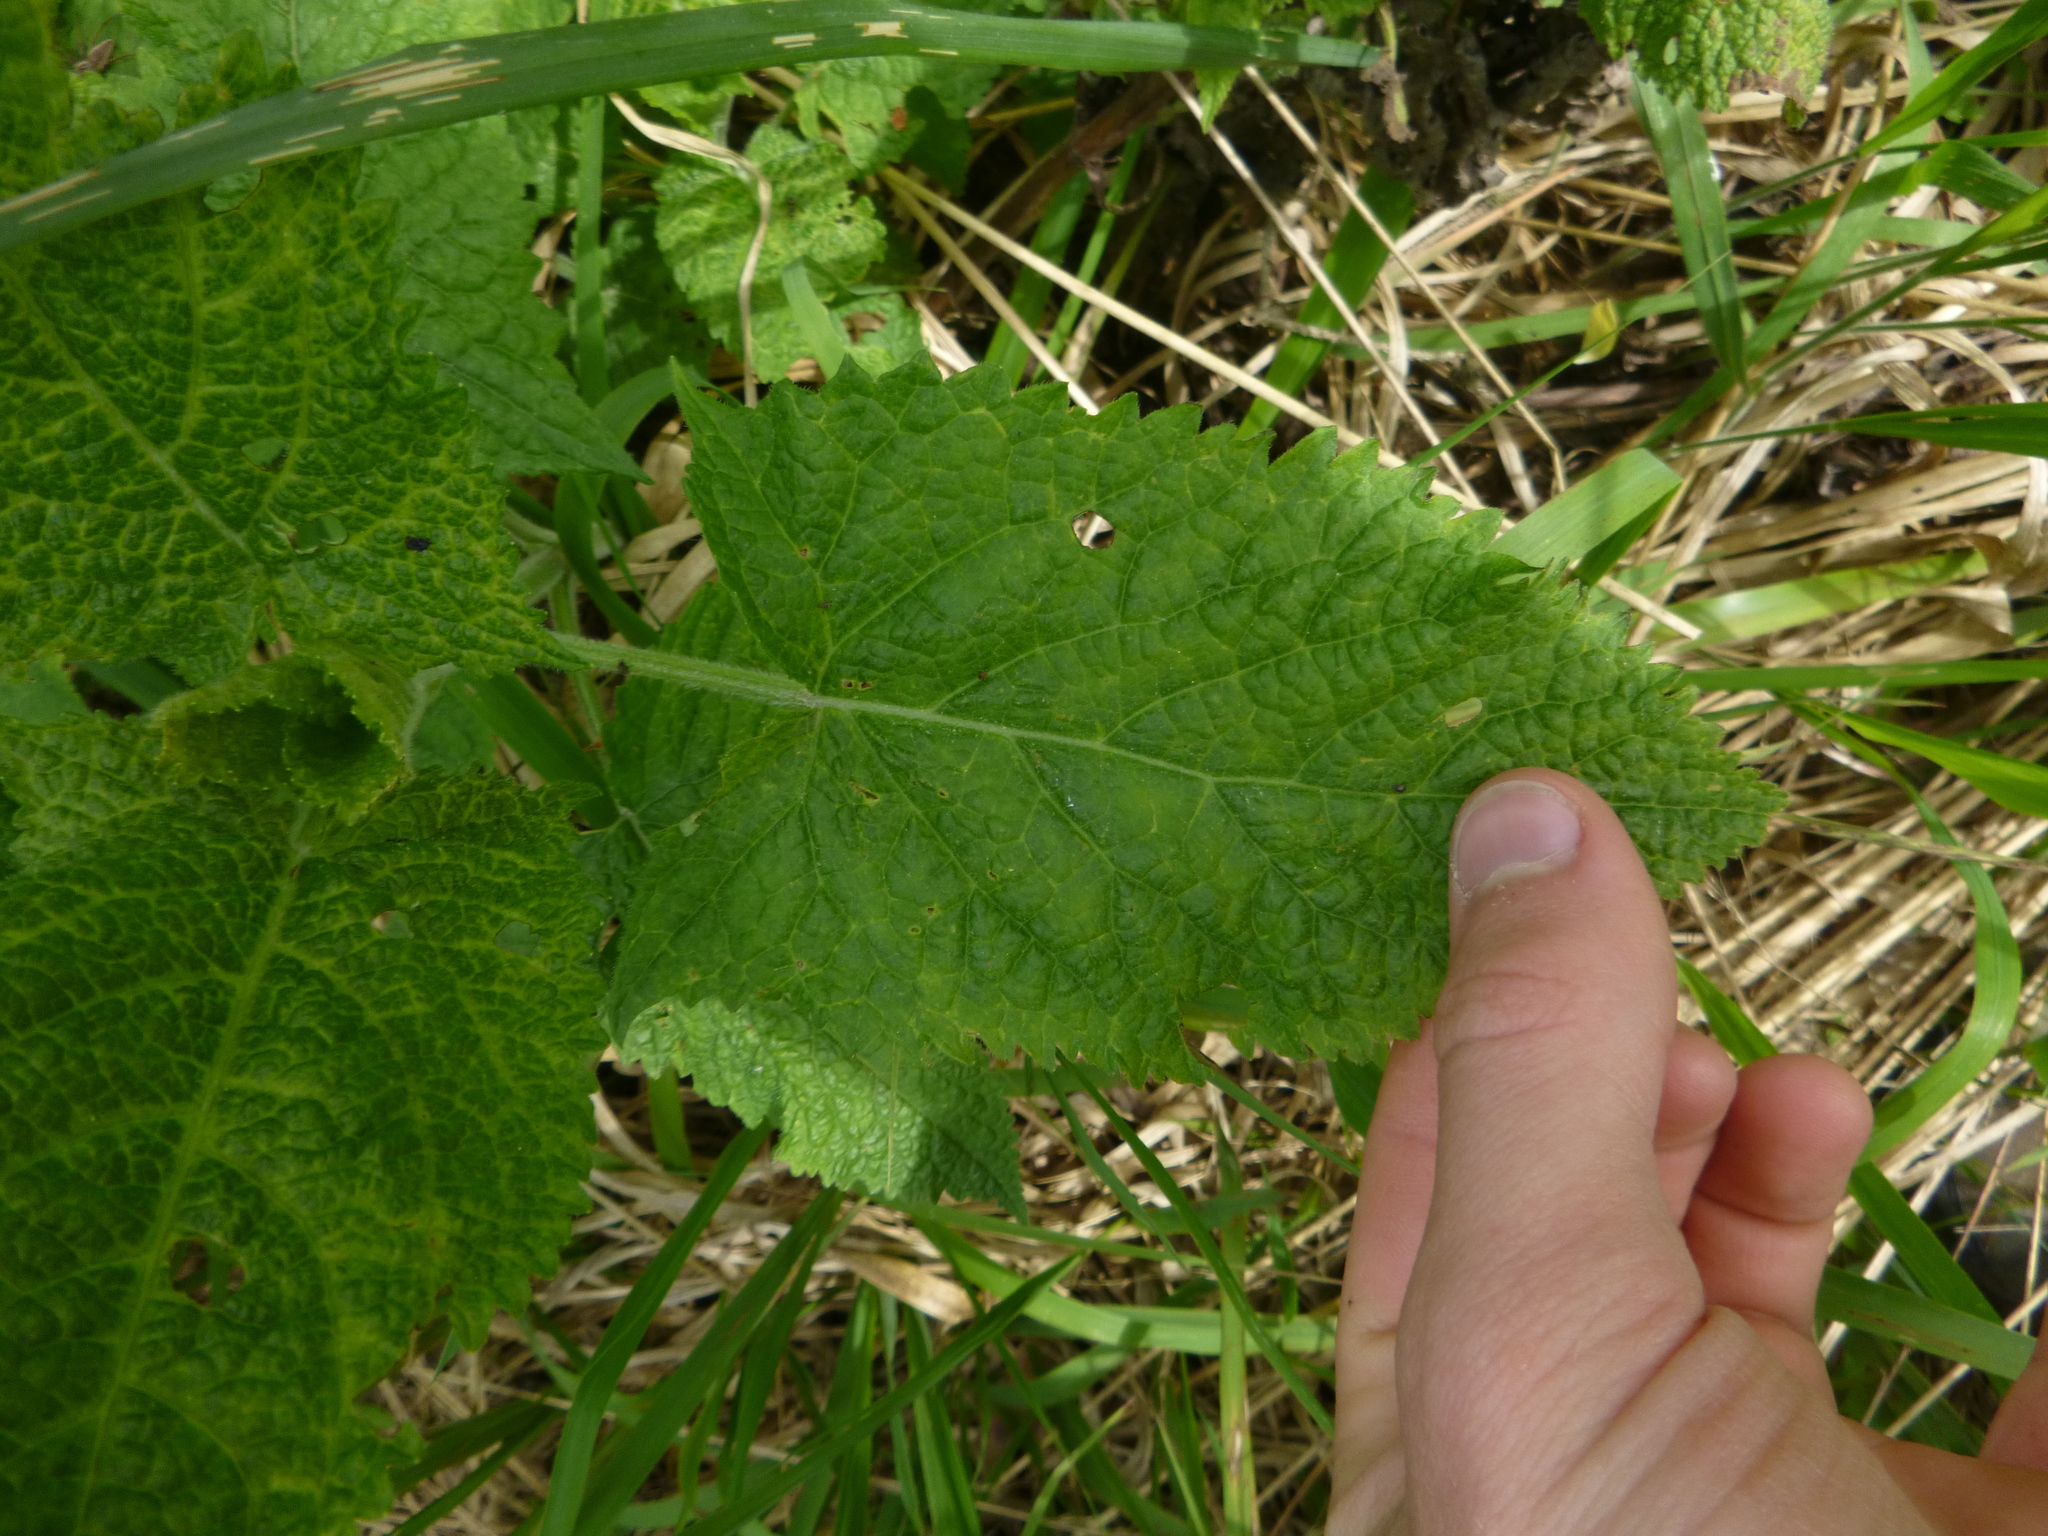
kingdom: Plantae
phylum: Tracheophyta
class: Magnoliopsida
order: Lamiales
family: Lamiaceae
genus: Salvia
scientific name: Salvia glutinosa
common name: Sticky clary
